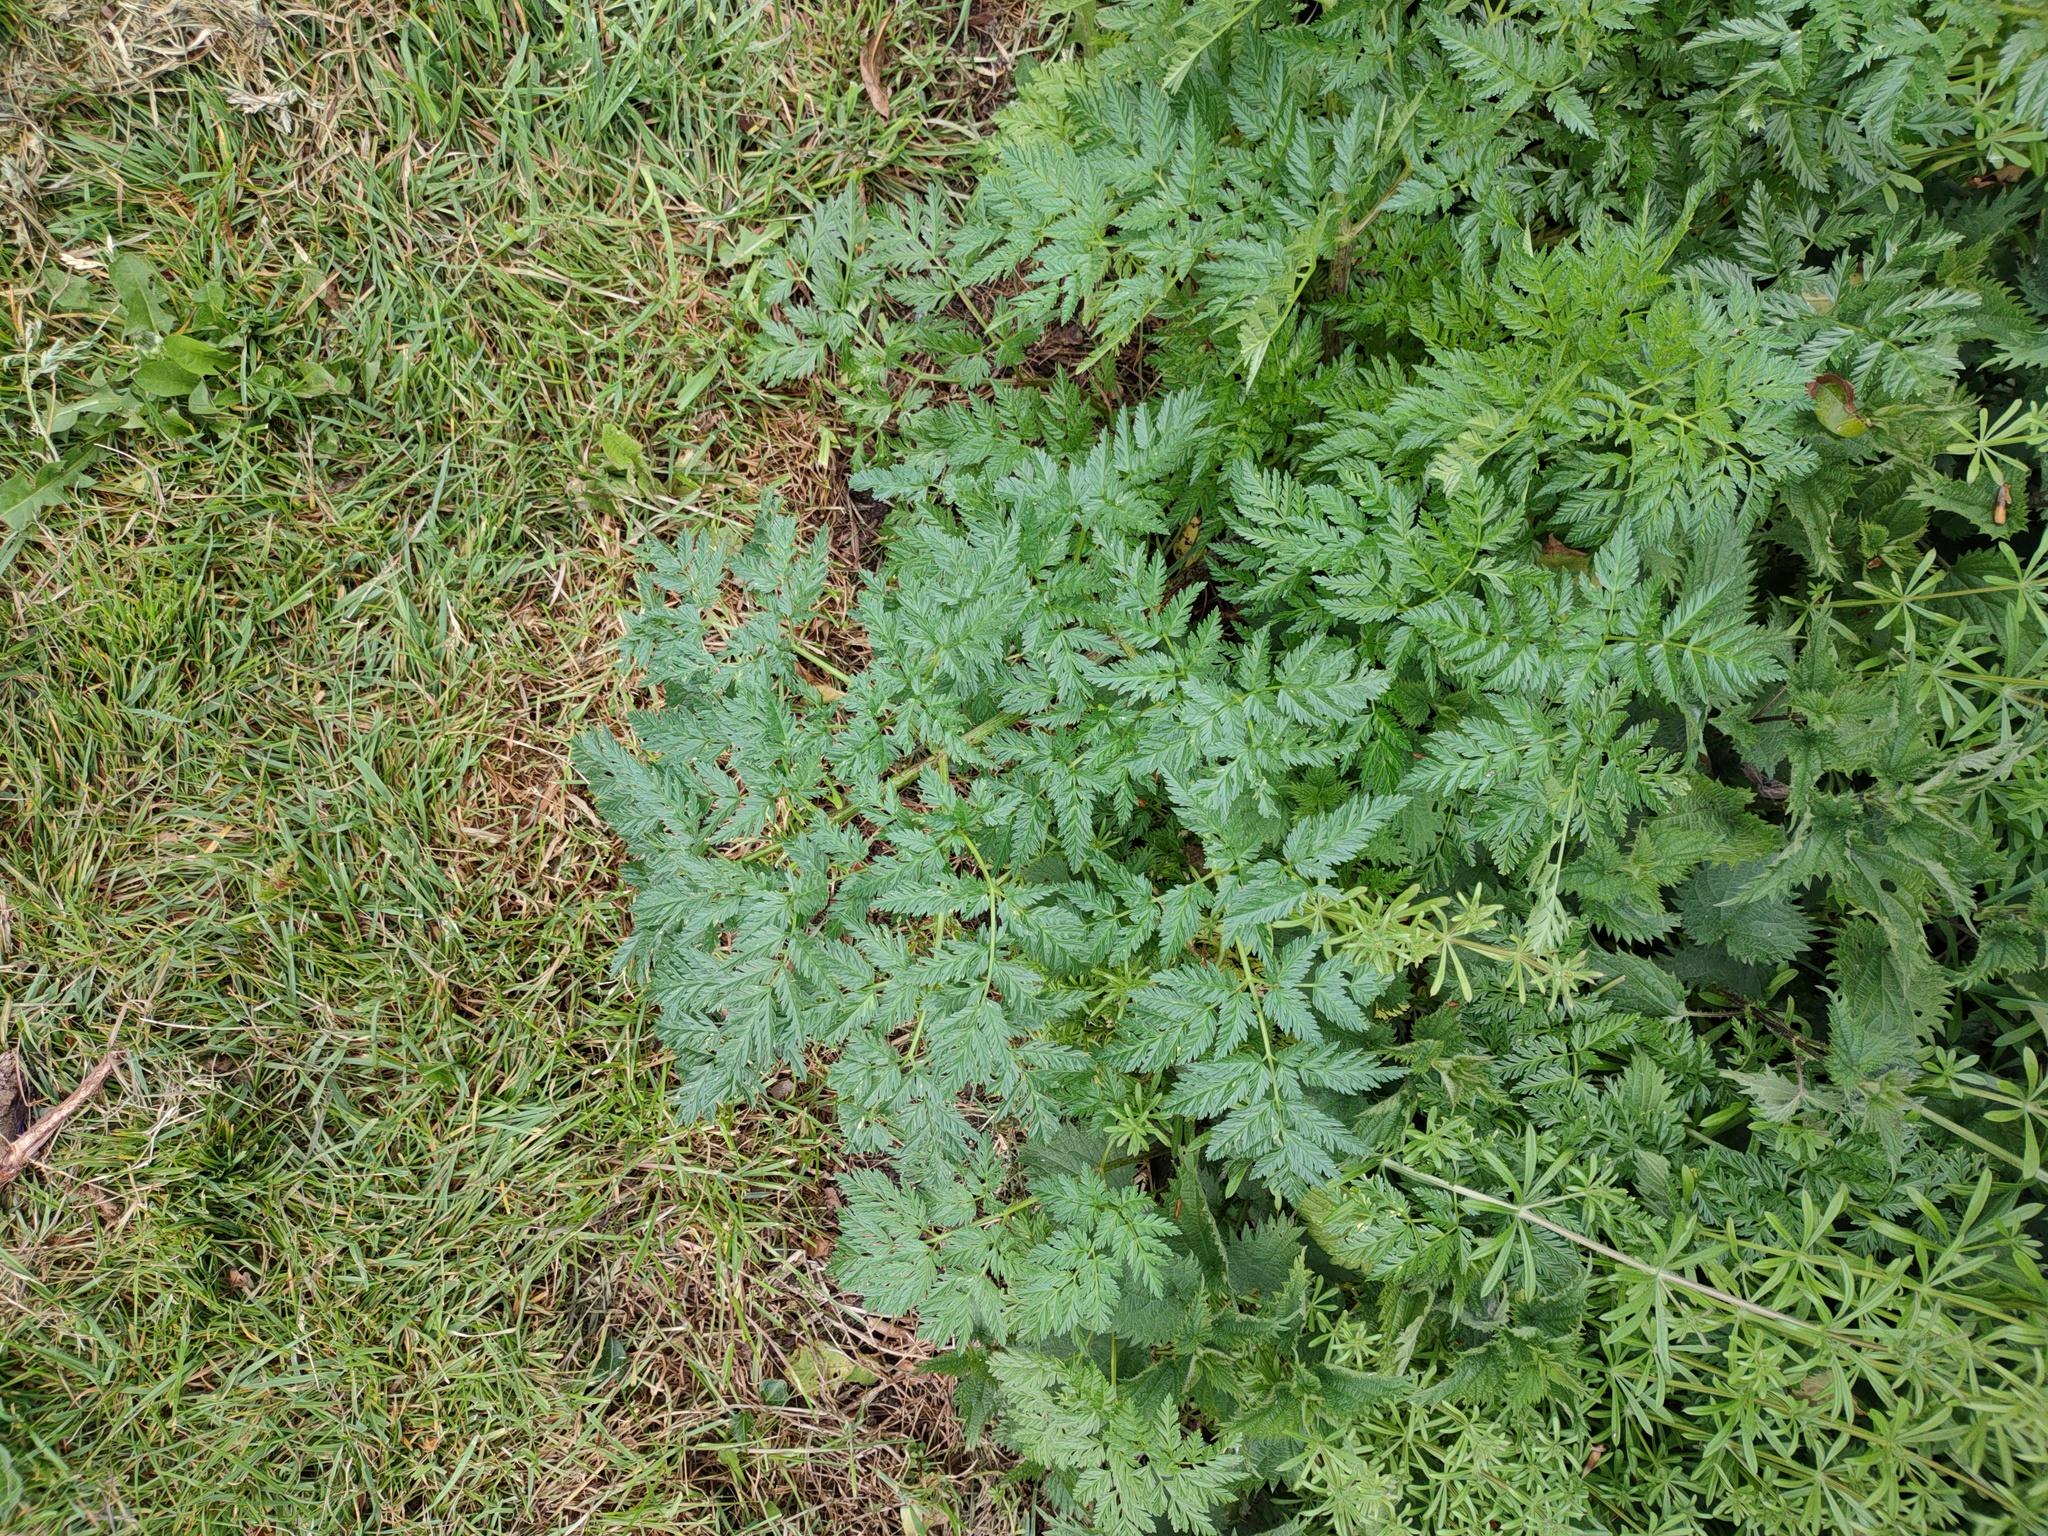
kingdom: Plantae
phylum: Tracheophyta
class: Magnoliopsida
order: Apiales
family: Apiaceae
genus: Anthriscus
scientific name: Anthriscus sylvestris
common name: Cow parsley
